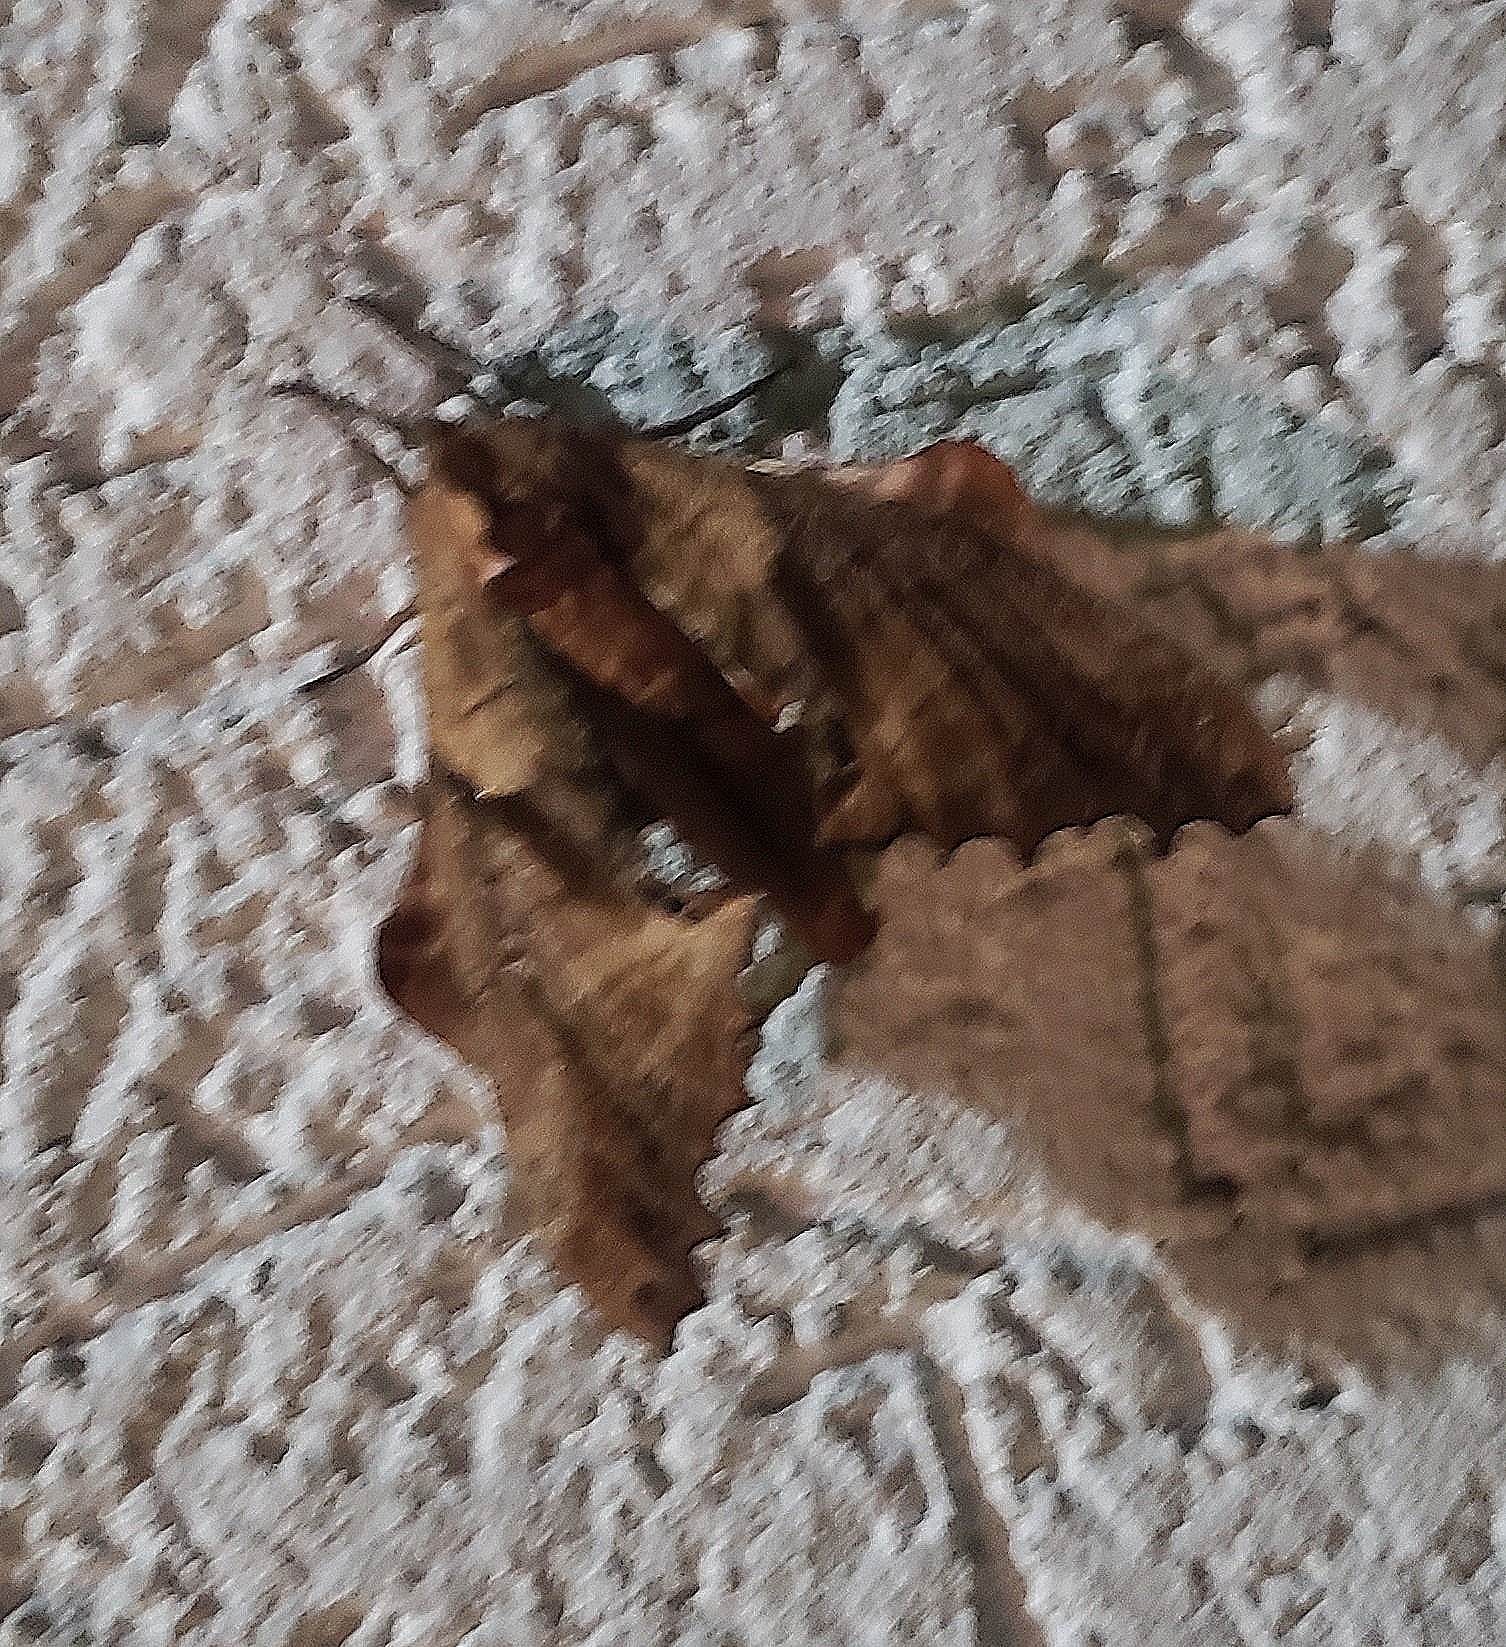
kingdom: Animalia
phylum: Arthropoda
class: Insecta
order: Lepidoptera
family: Sphingidae
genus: Paonias
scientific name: Paonias excaecata
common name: Blind-eyed sphinx
